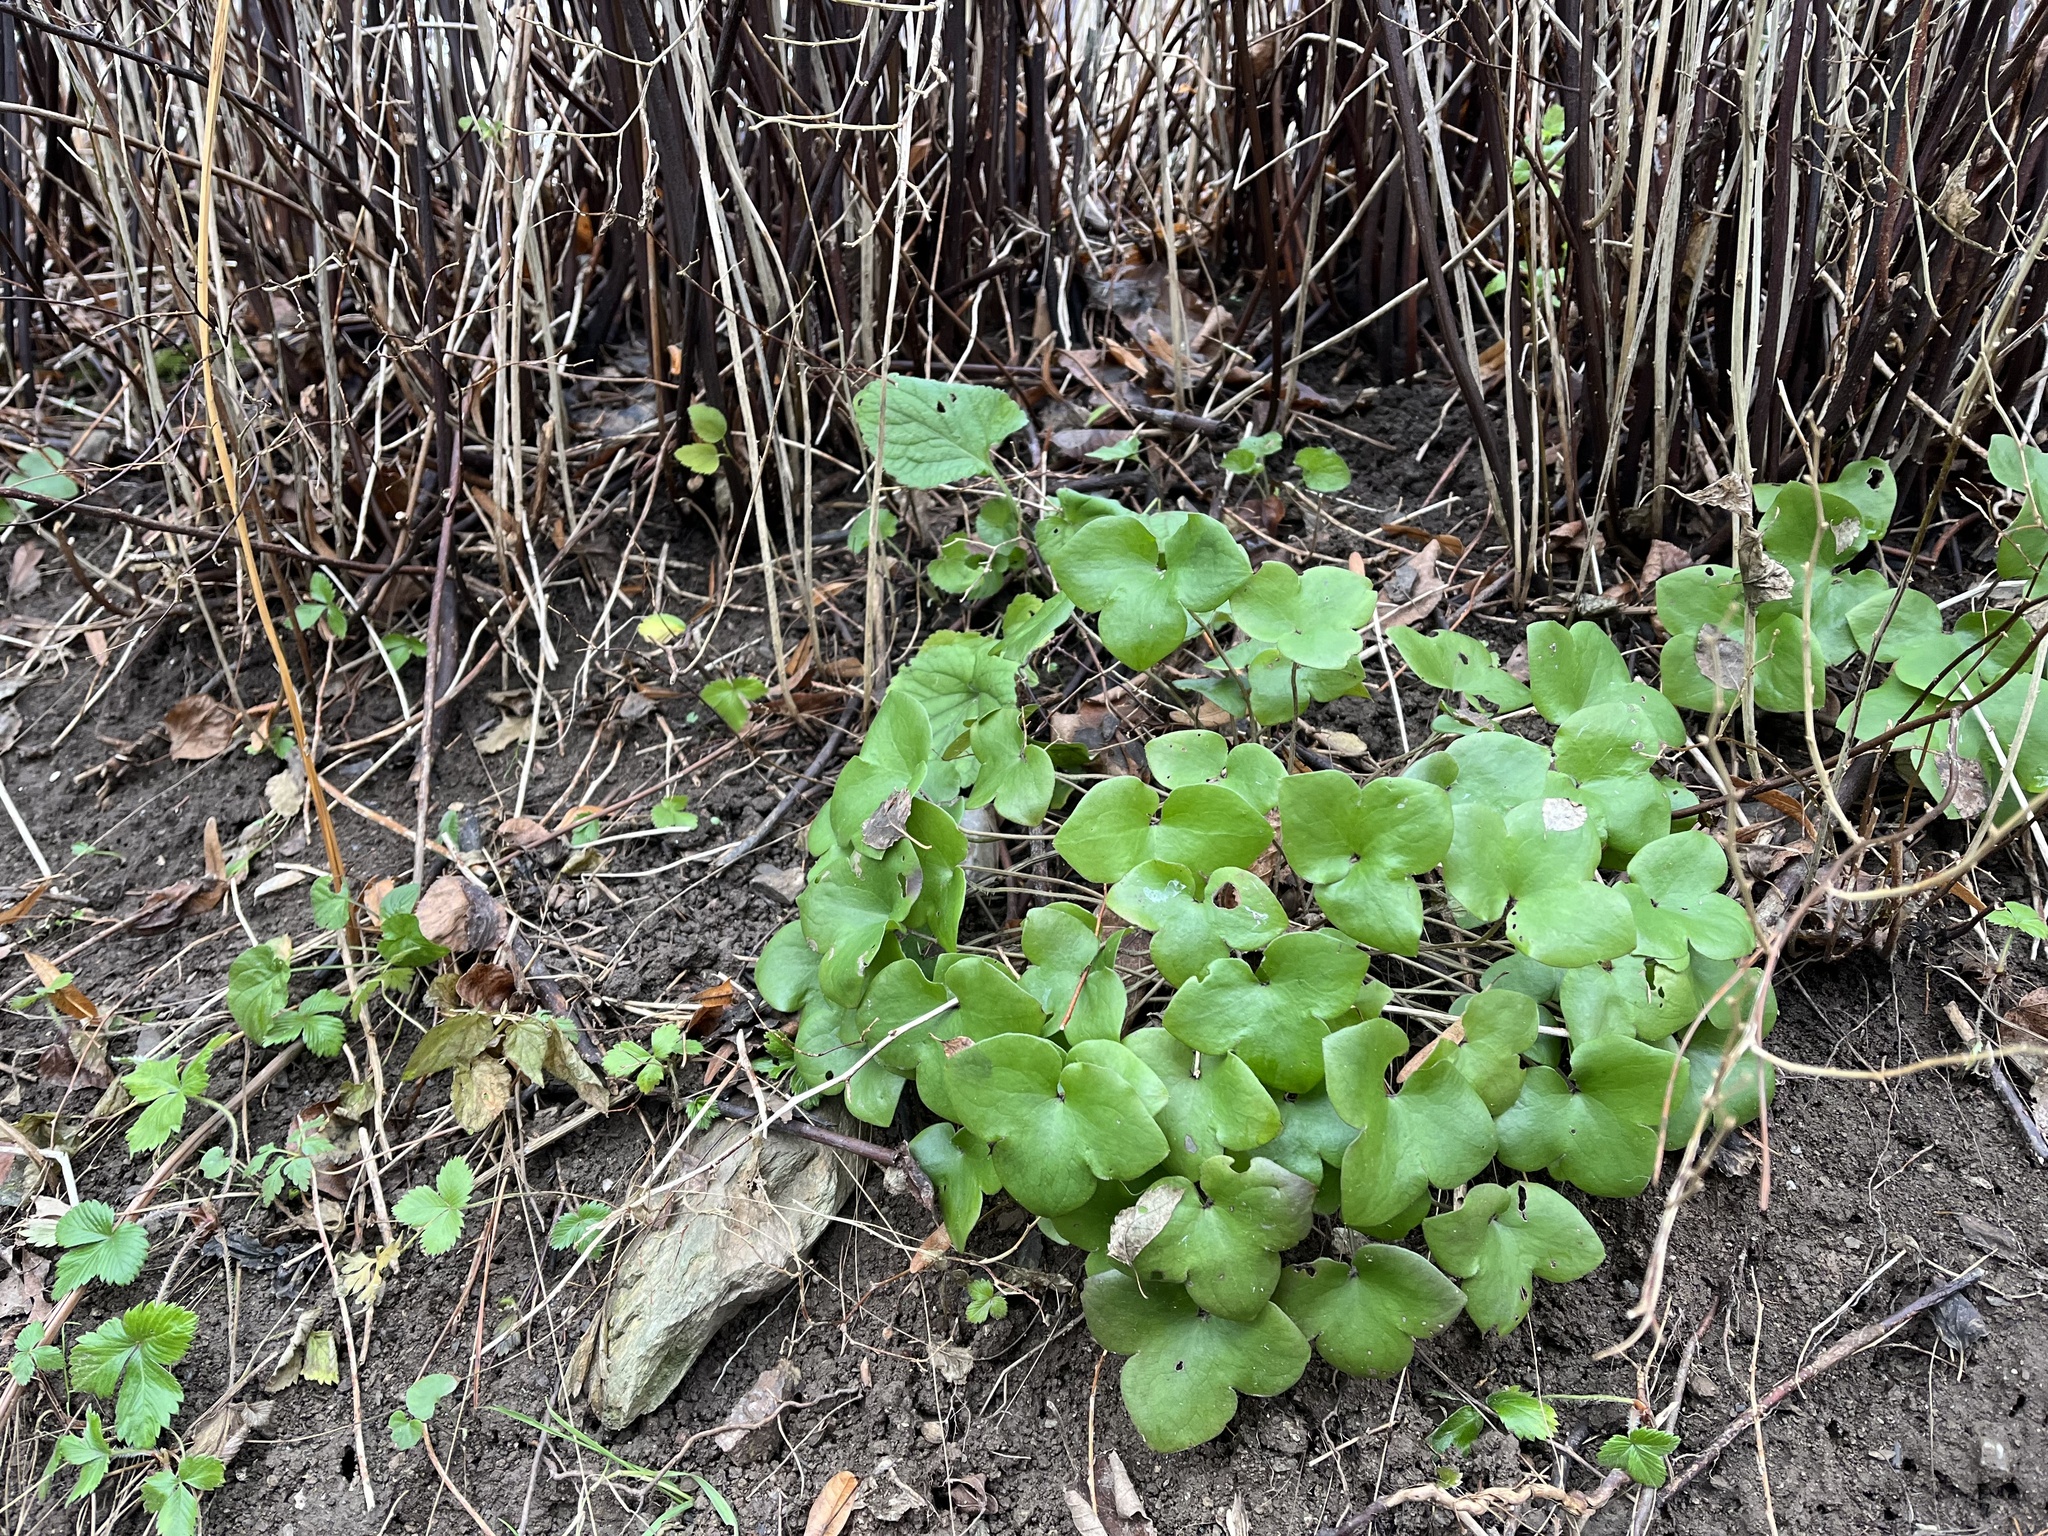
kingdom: Plantae
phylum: Tracheophyta
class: Magnoliopsida
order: Ranunculales
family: Ranunculaceae
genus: Hepatica
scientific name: Hepatica nobilis
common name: Liverleaf
